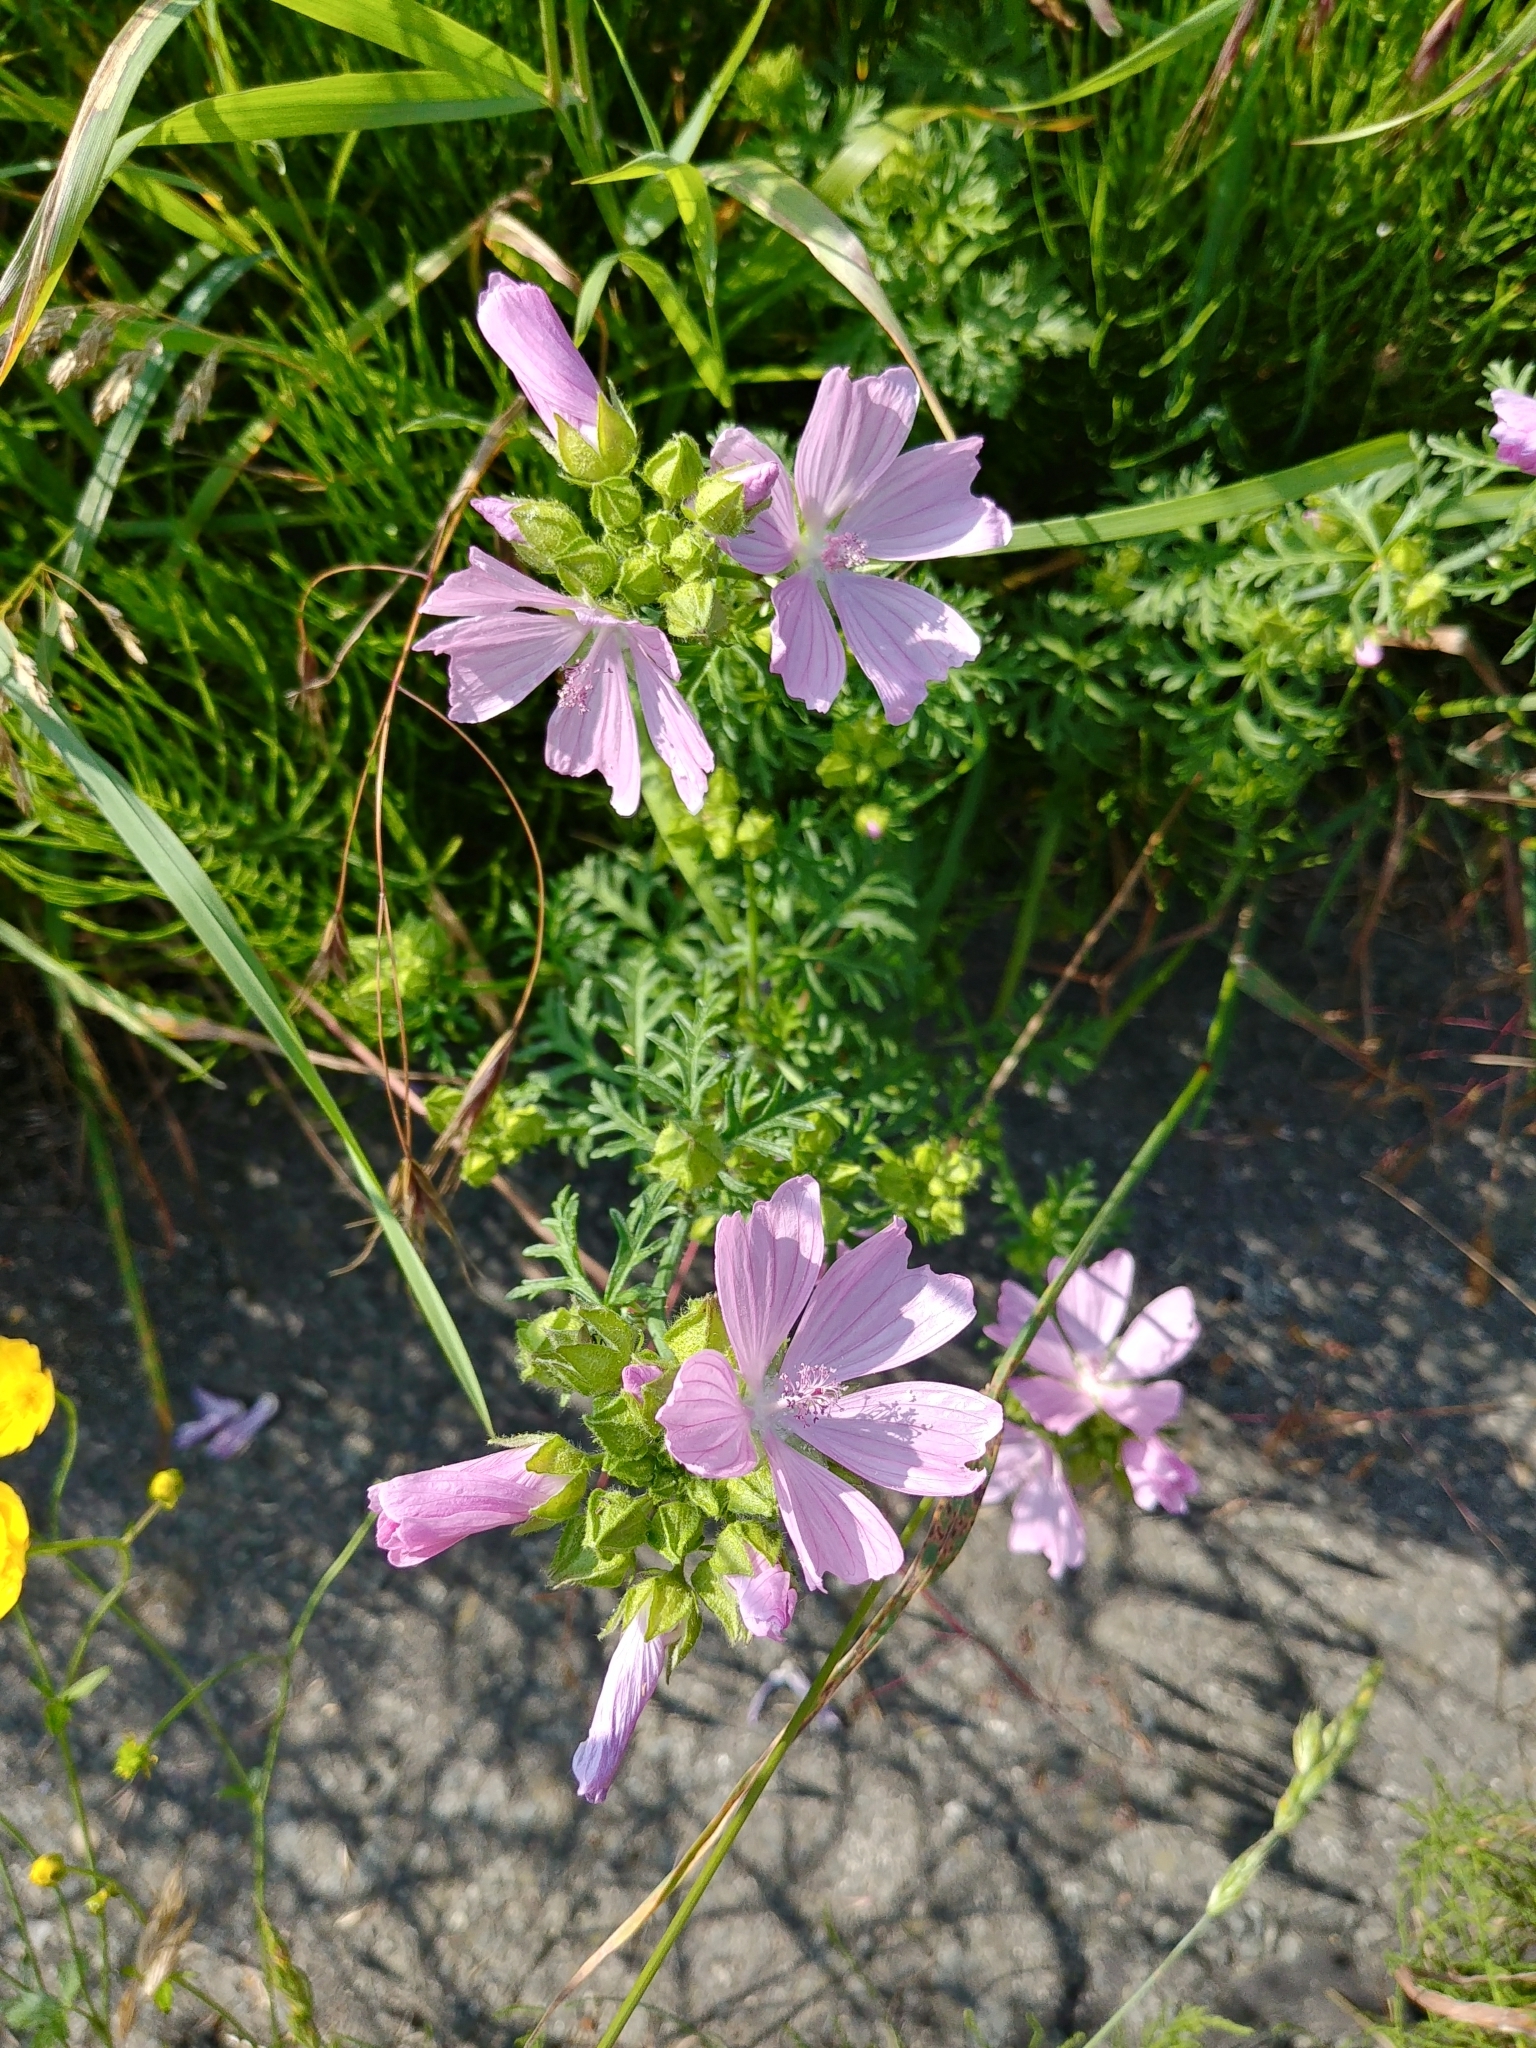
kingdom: Plantae
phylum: Tracheophyta
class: Magnoliopsida
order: Malvales
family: Malvaceae
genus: Malva
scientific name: Malva moschata
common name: Musk mallow
